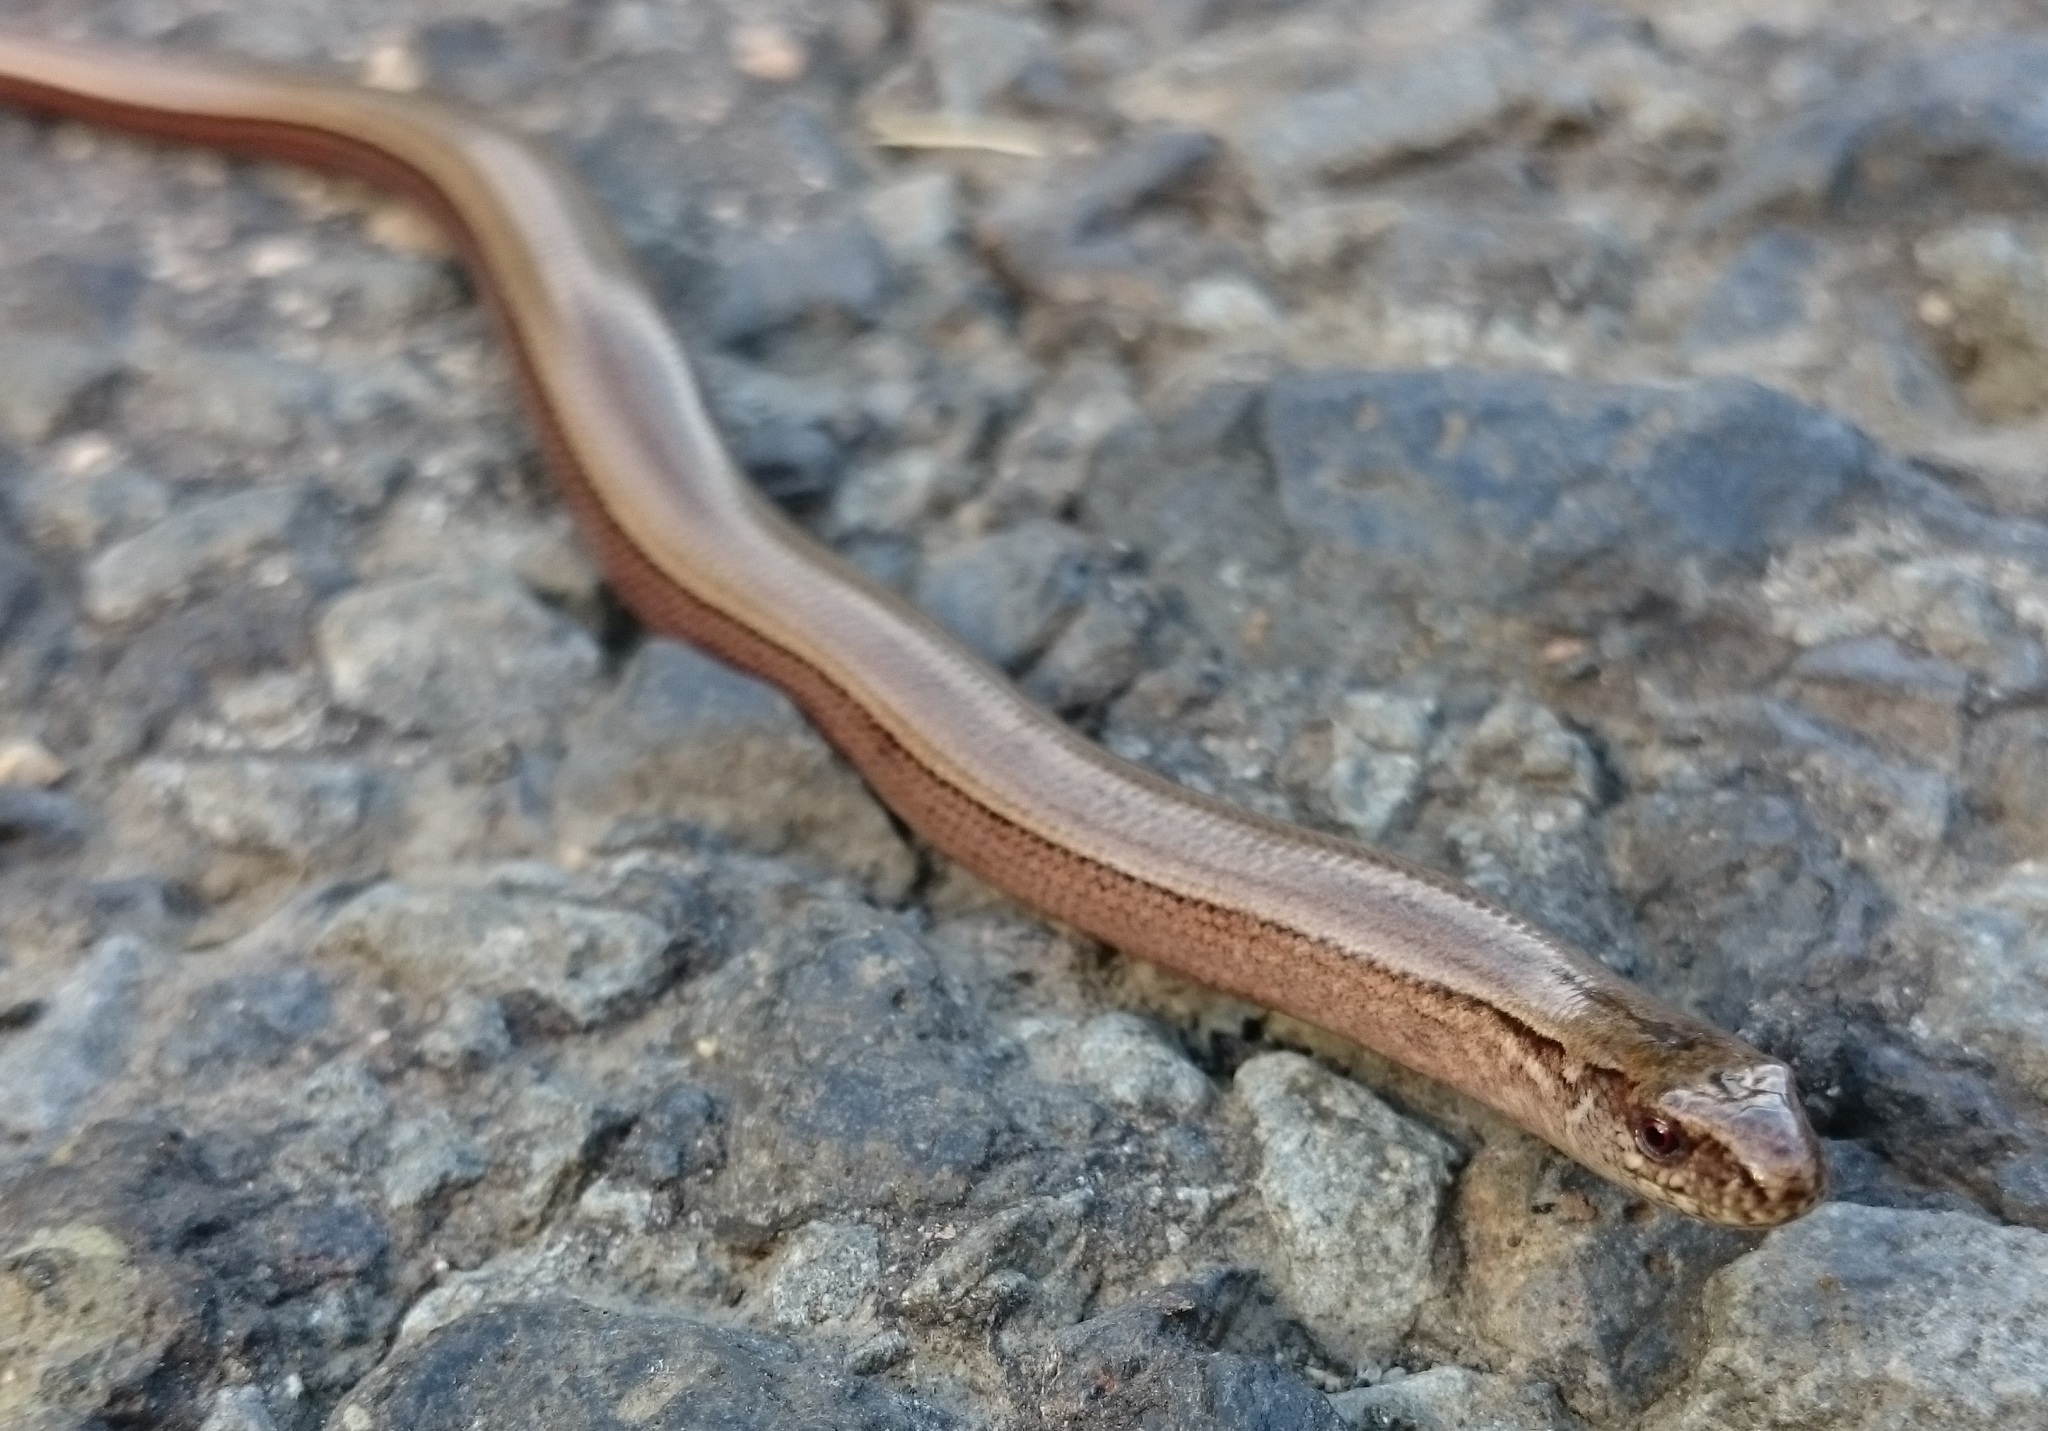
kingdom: Animalia
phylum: Chordata
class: Squamata
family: Anguidae
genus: Anguis
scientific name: Anguis fragilis
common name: Slow worm
